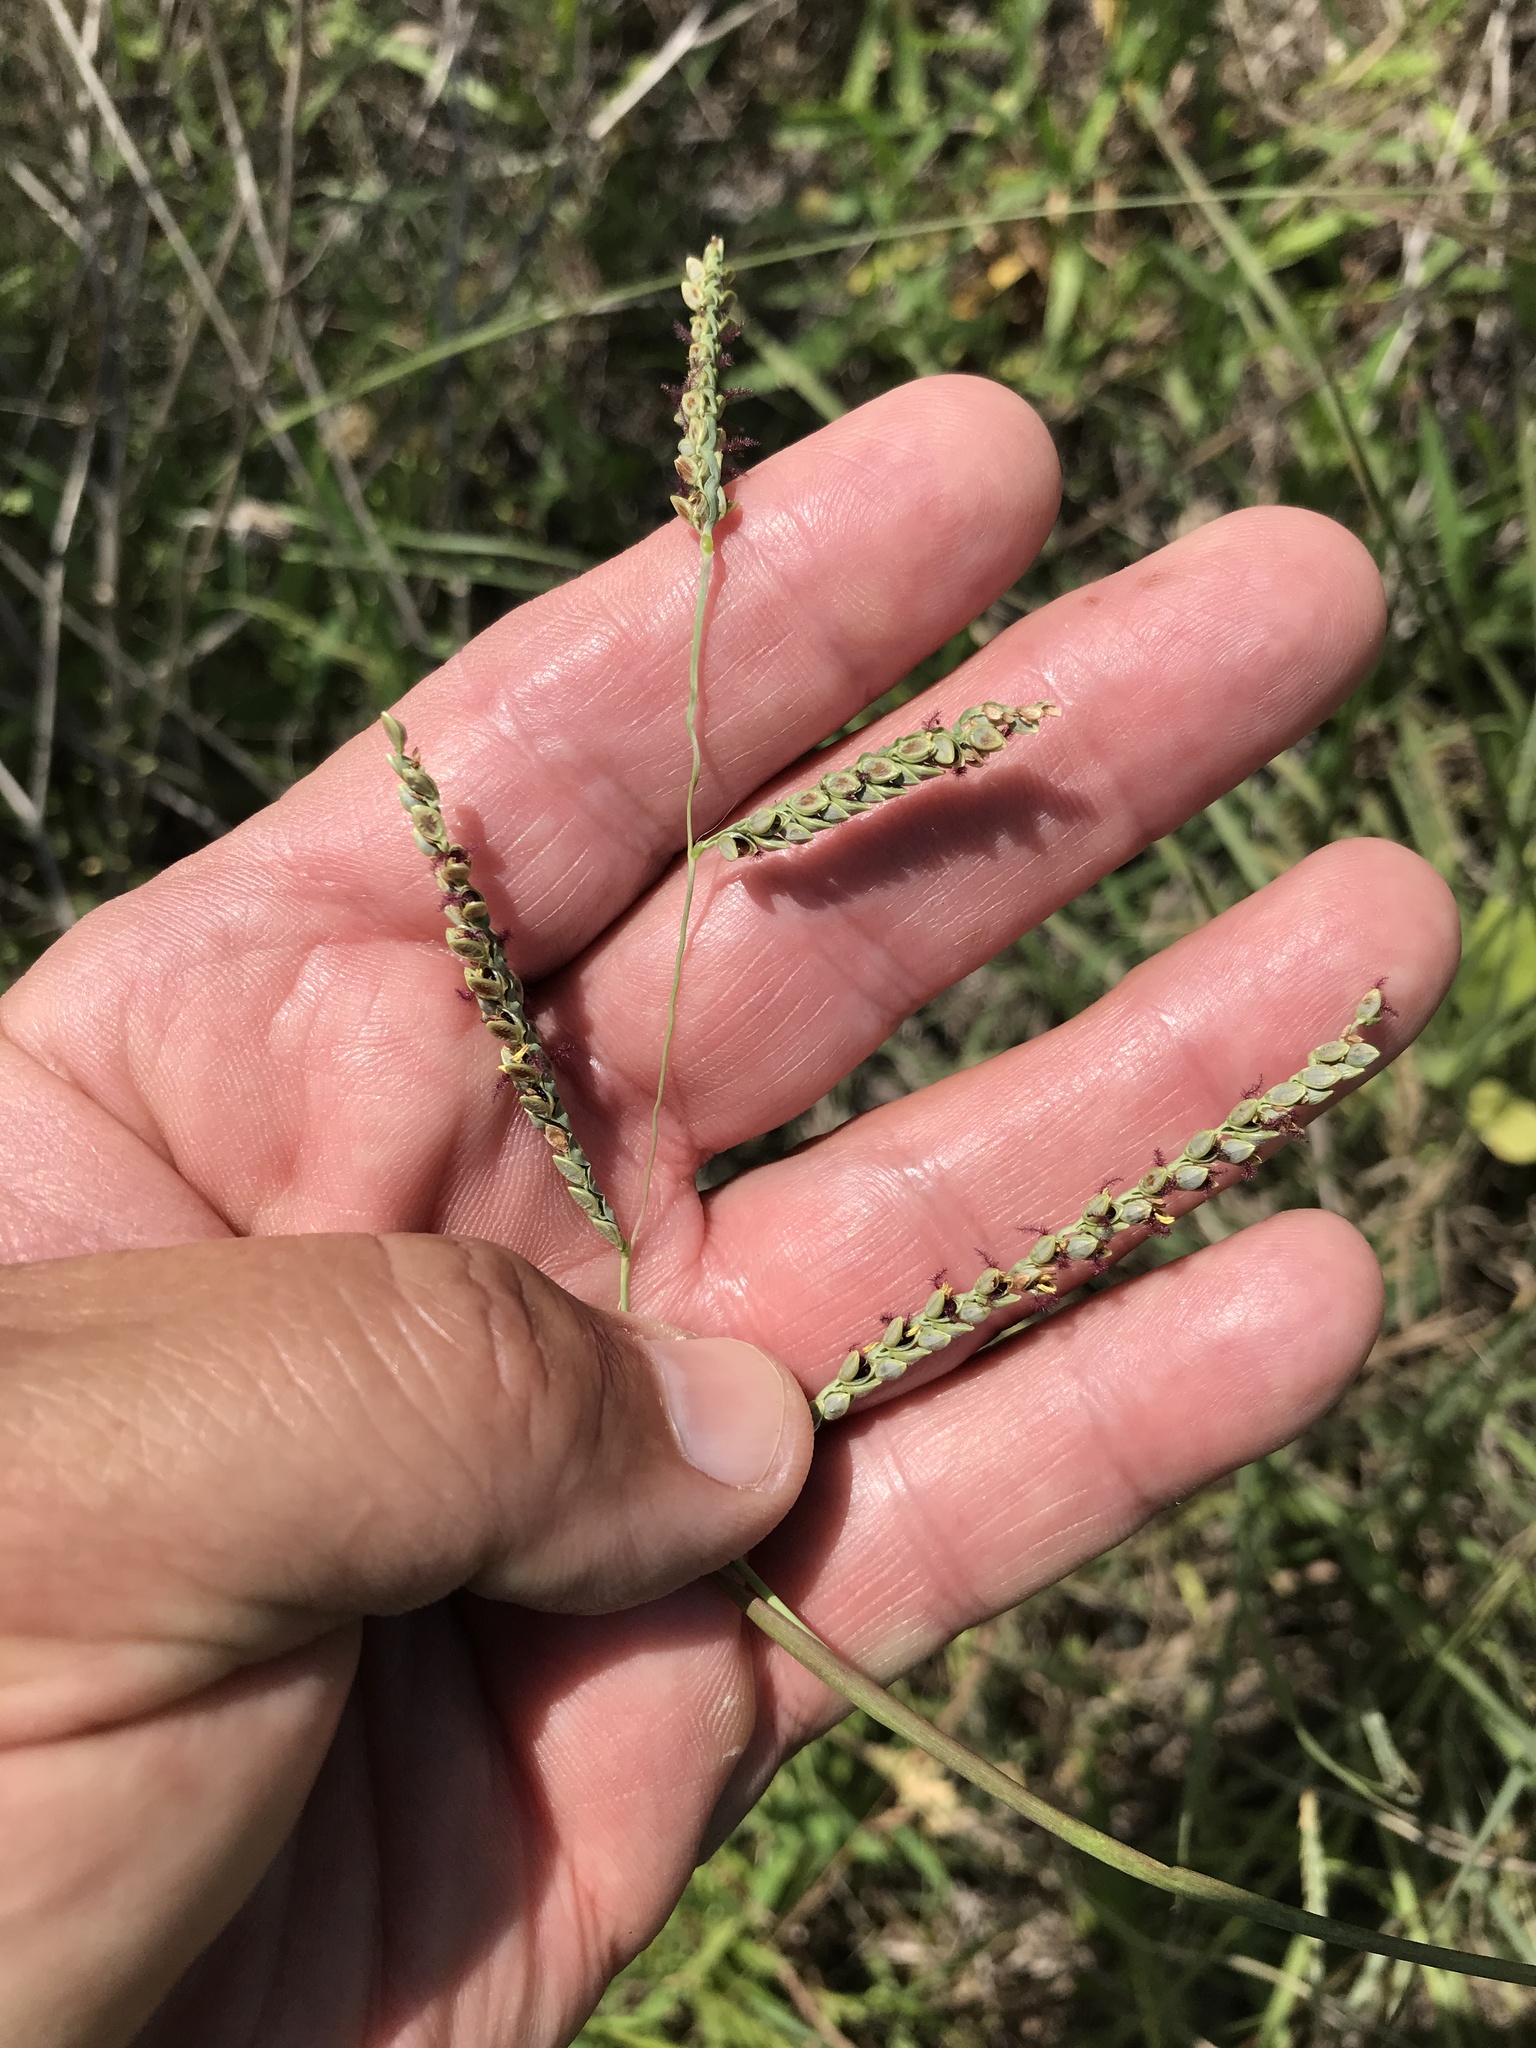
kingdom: Plantae
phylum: Tracheophyta
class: Liliopsida
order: Poales
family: Poaceae
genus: Paspalum
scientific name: Paspalum plicatulum
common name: Top paspalum
